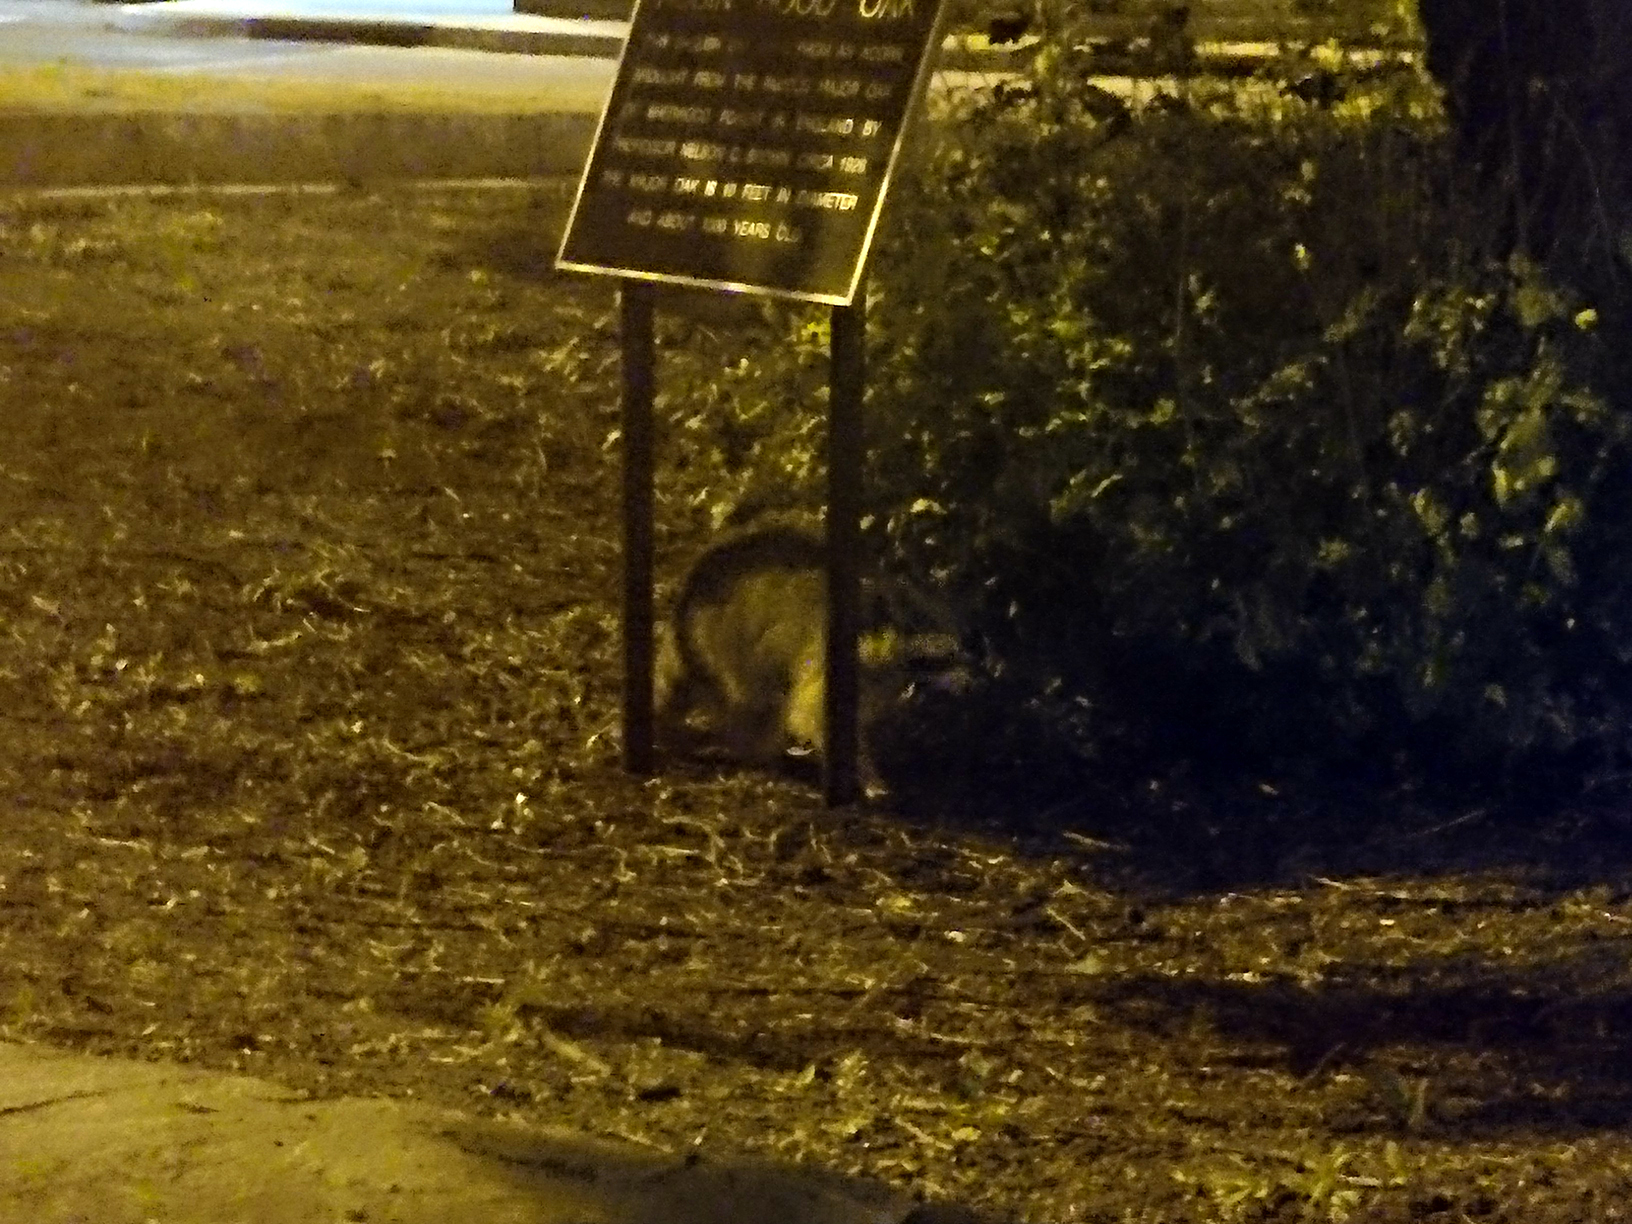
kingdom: Animalia
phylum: Chordata
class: Mammalia
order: Carnivora
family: Procyonidae
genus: Procyon
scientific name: Procyon lotor
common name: Raccoon
